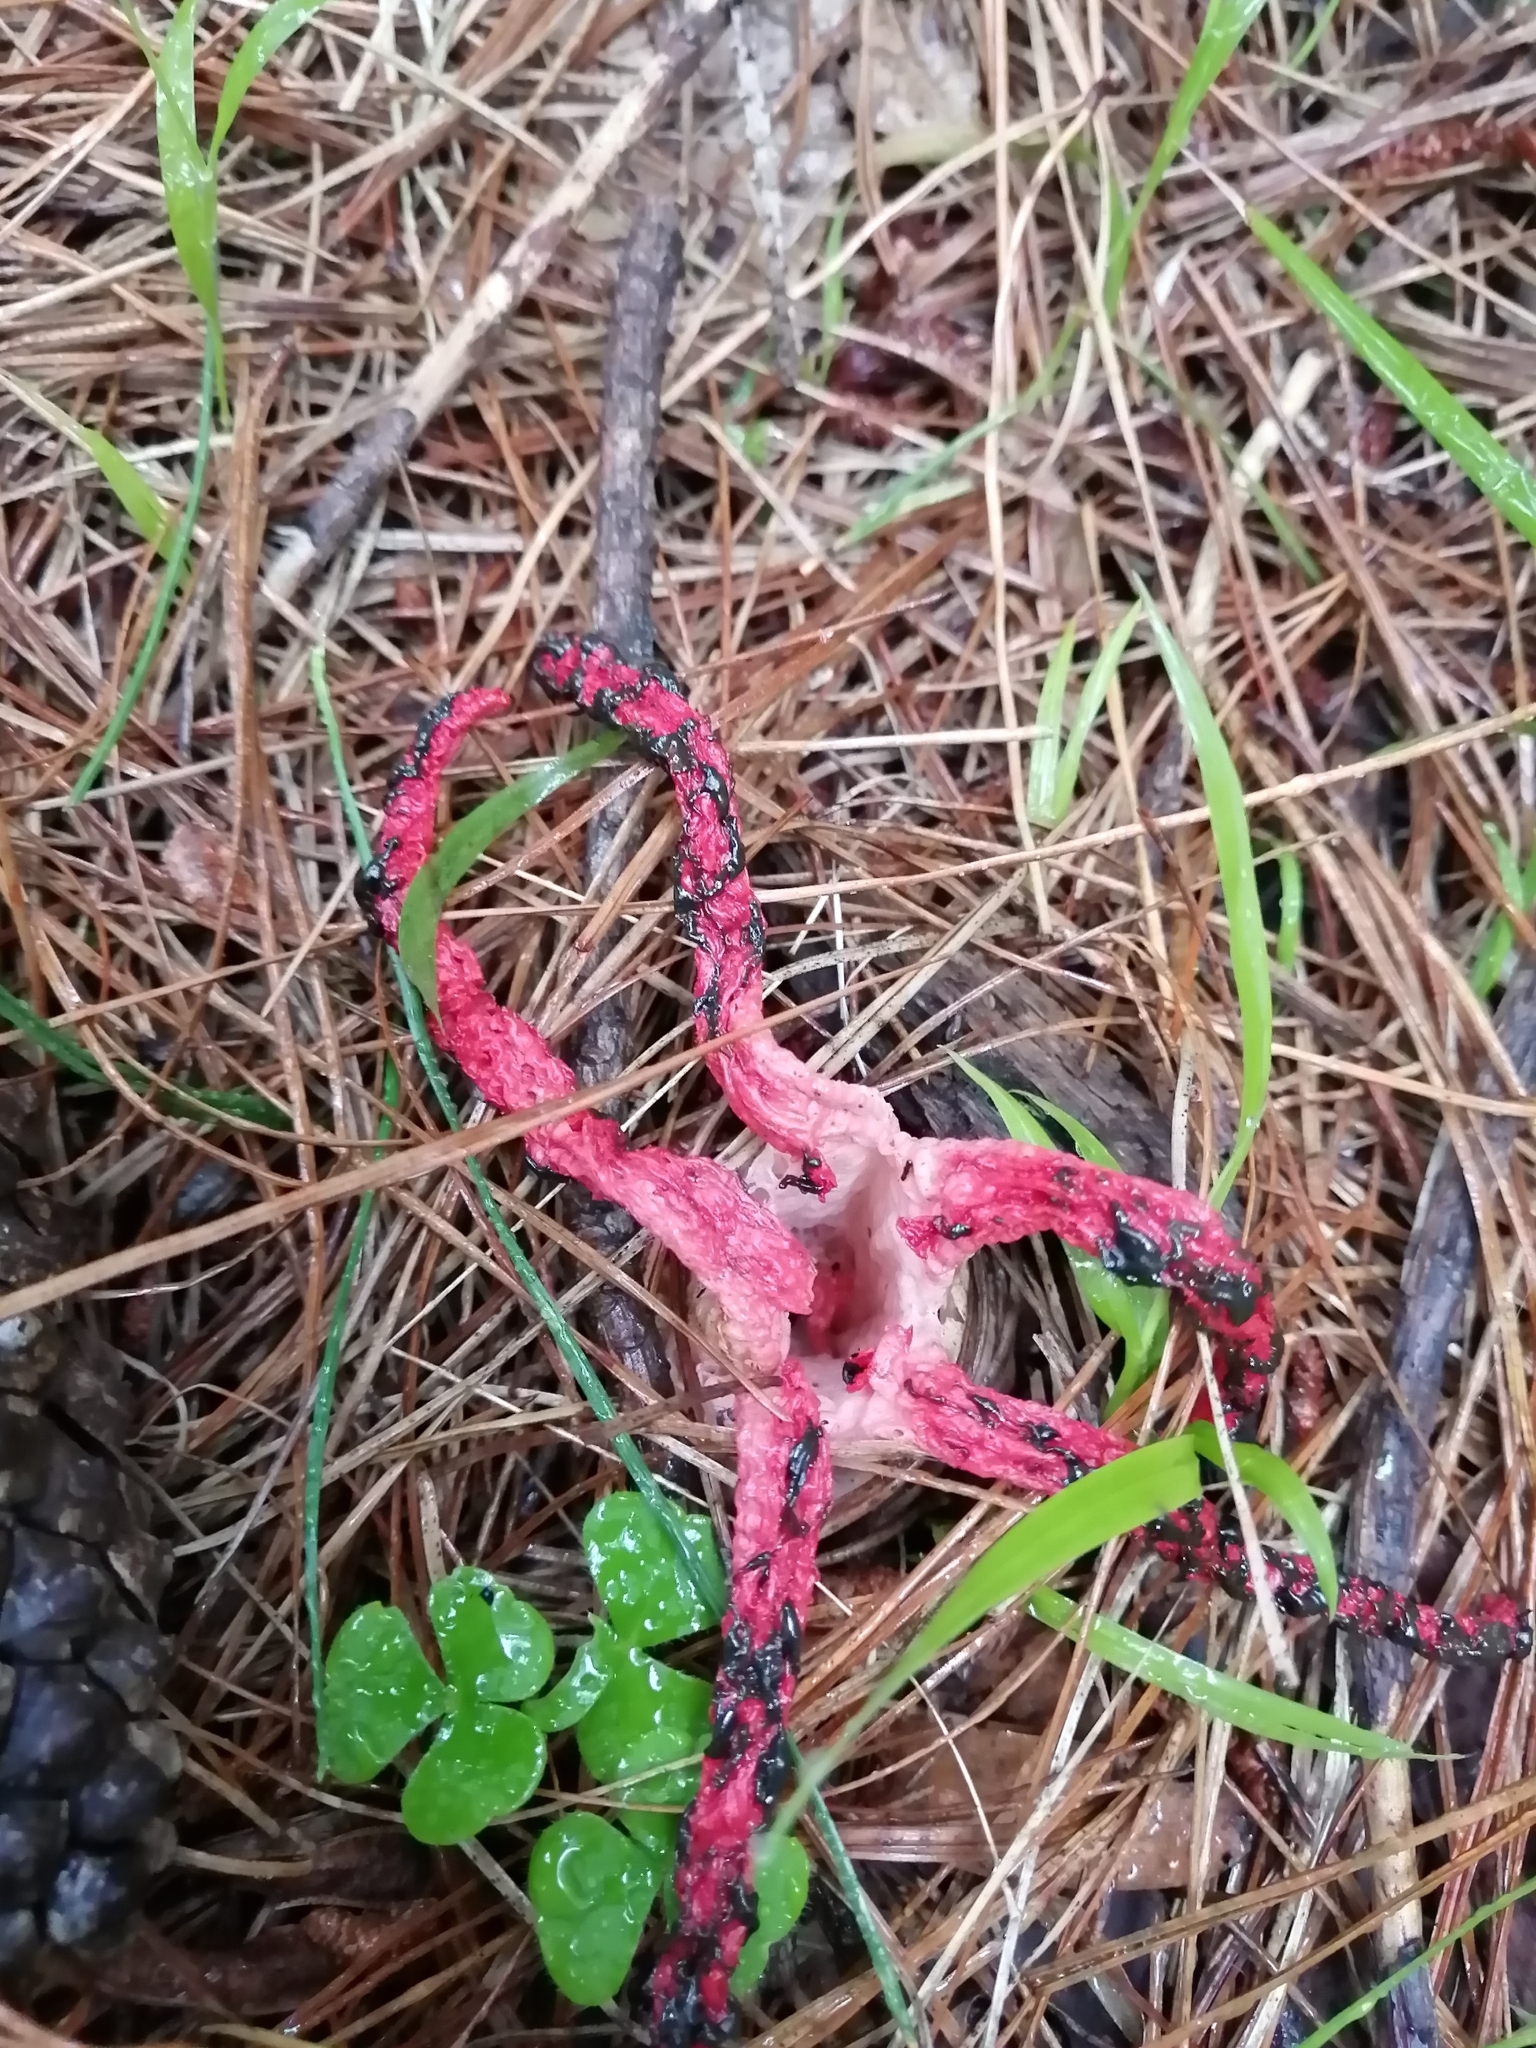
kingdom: Fungi
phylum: Basidiomycota
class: Agaricomycetes
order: Phallales
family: Phallaceae
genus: Clathrus
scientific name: Clathrus archeri
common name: Devil's fingers
